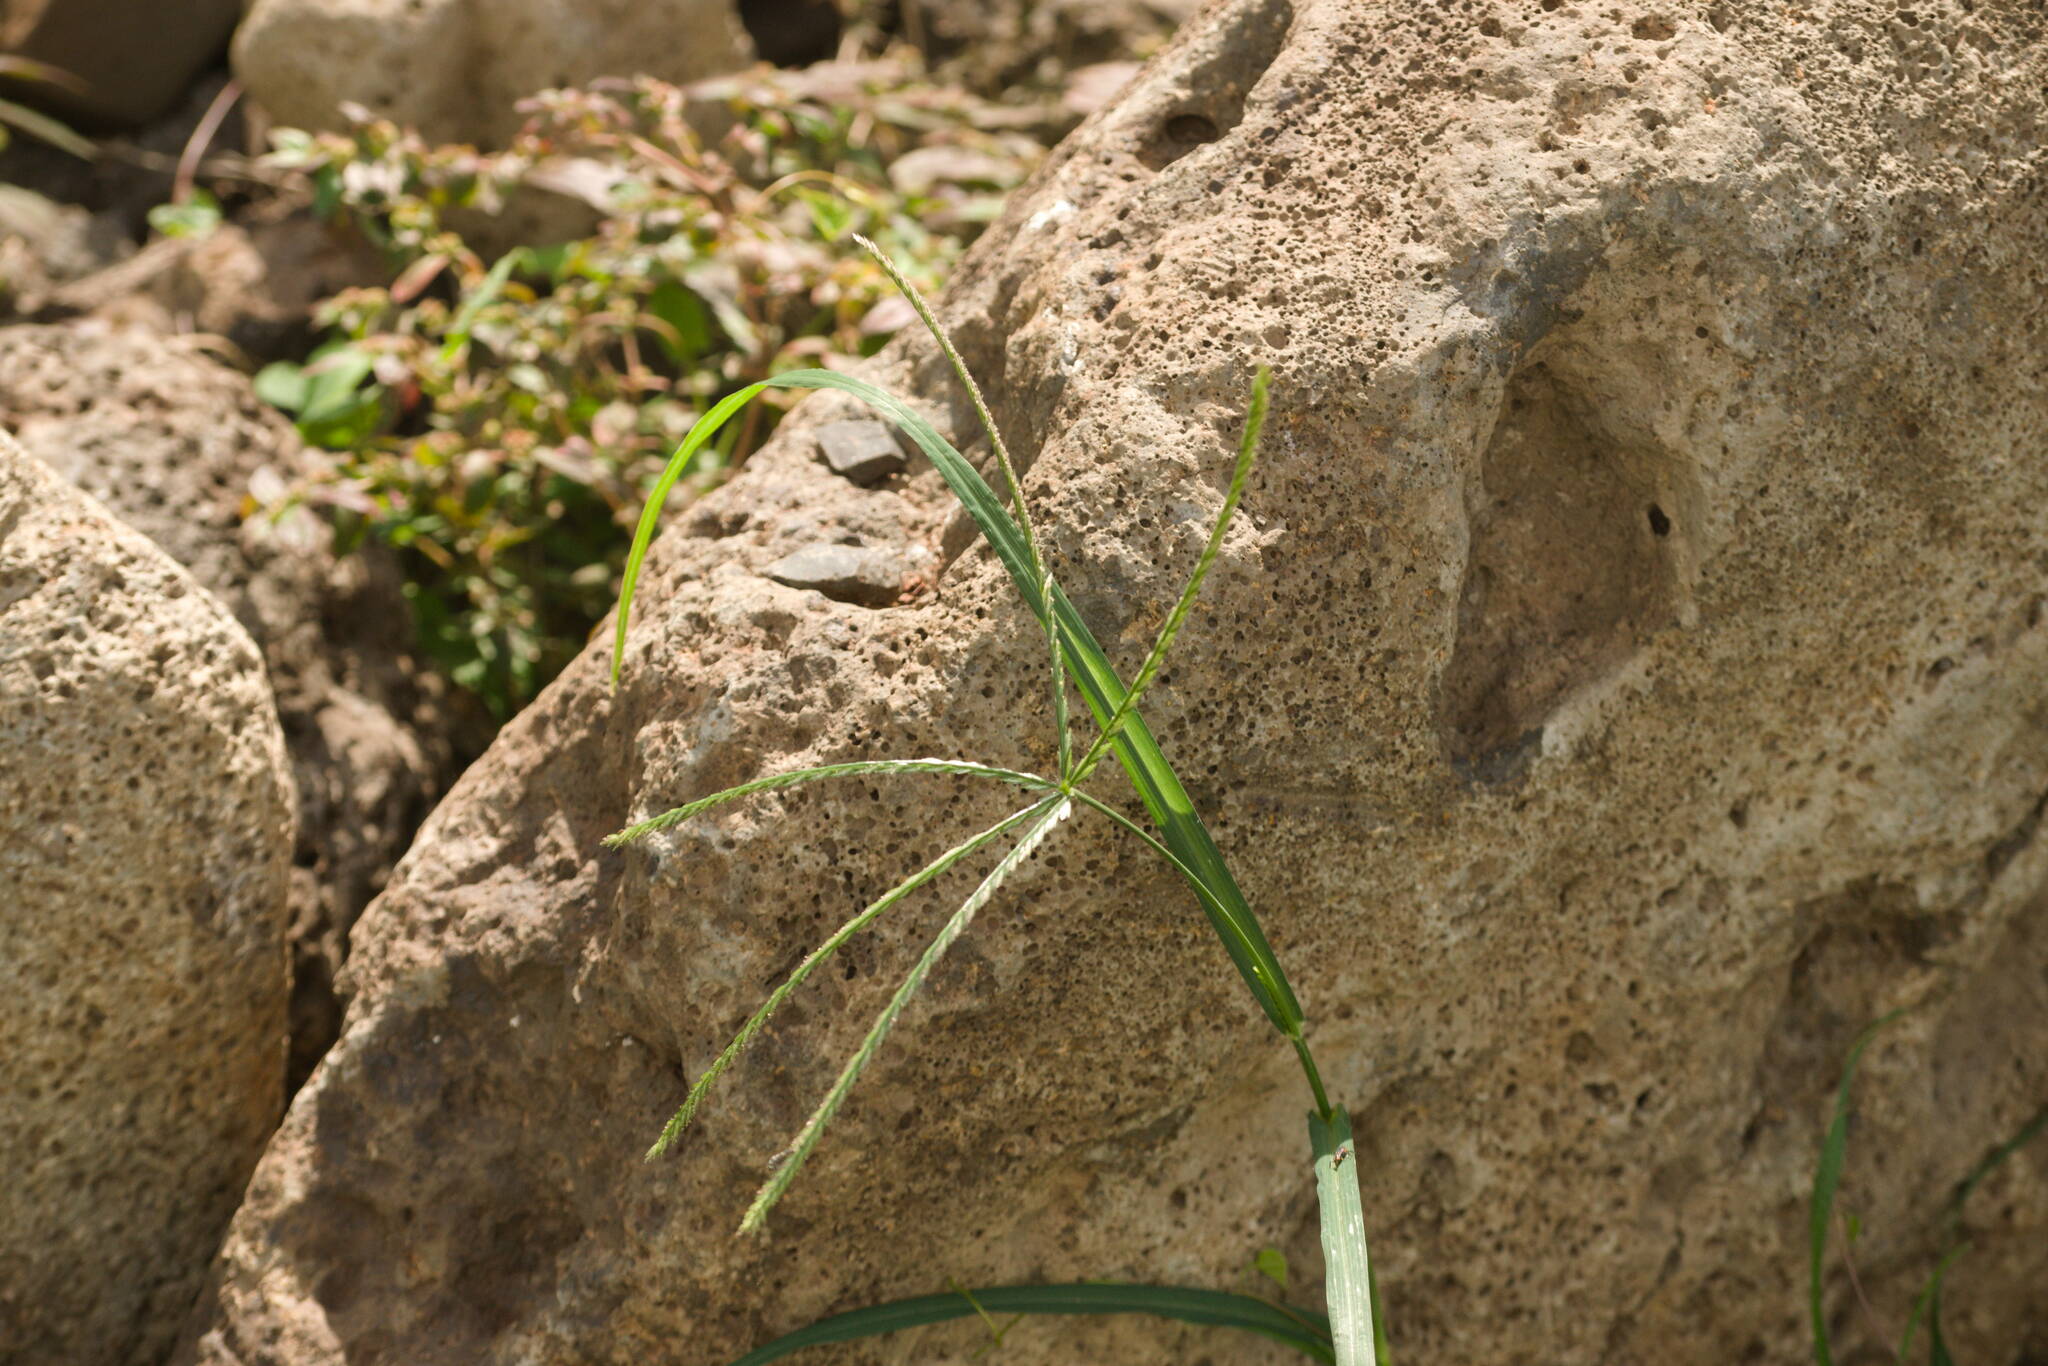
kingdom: Plantae
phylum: Tracheophyta
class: Liliopsida
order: Poales
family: Poaceae
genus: Eleusine
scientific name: Eleusine indica
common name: Yard-grass
